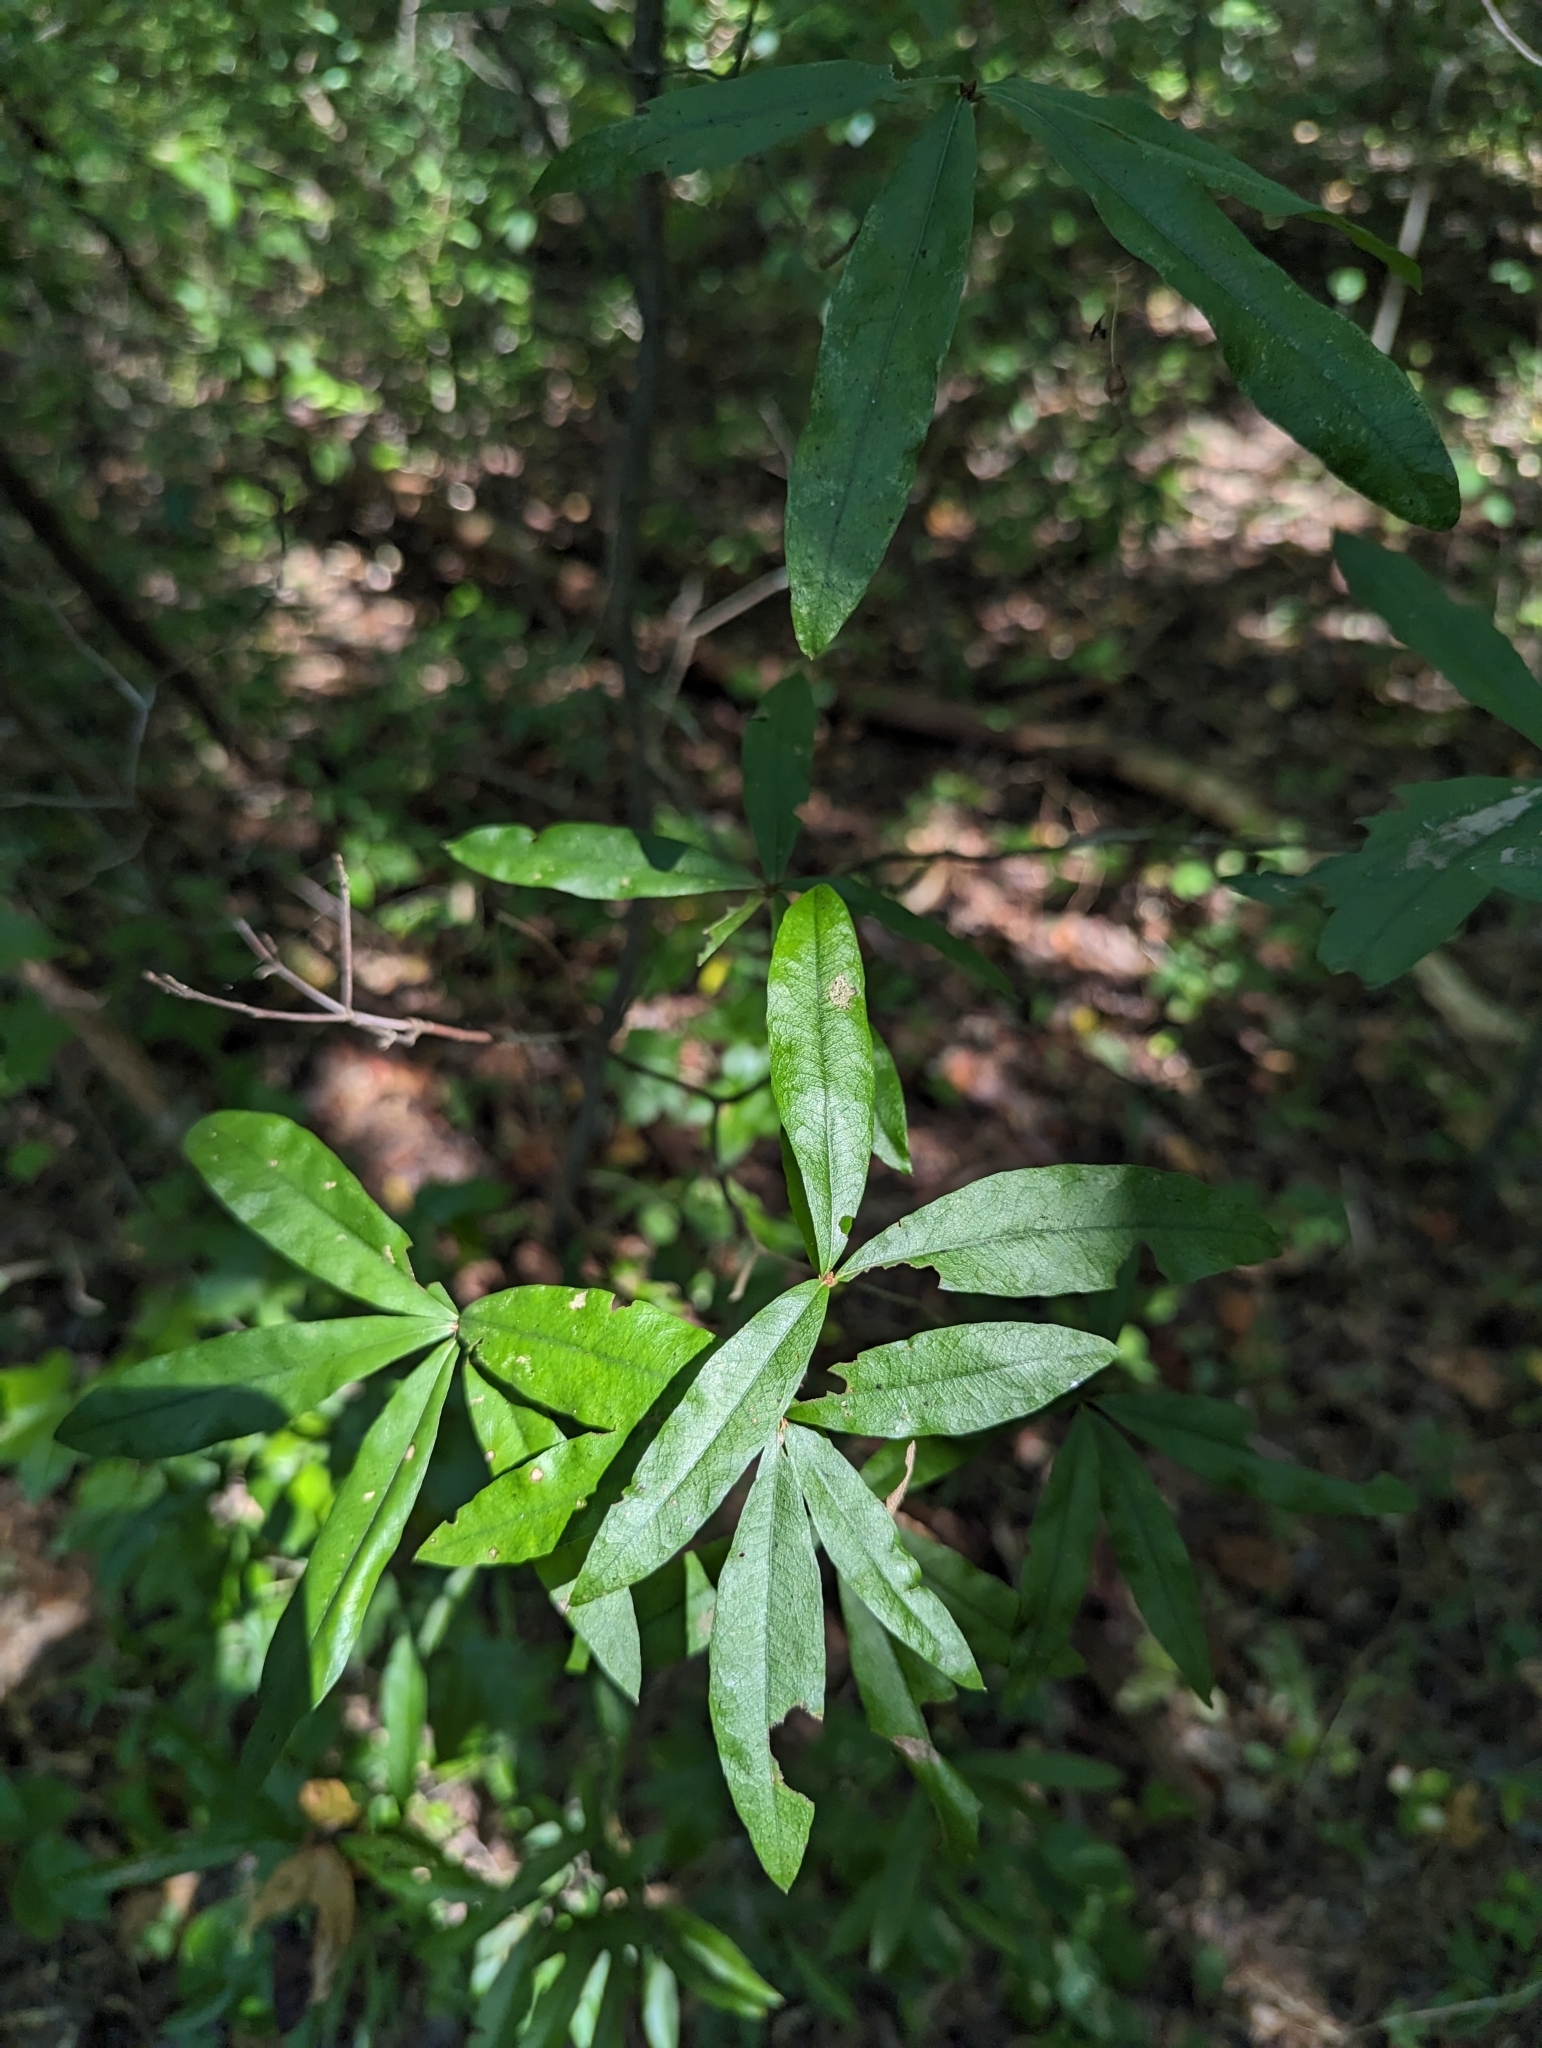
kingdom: Plantae
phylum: Tracheophyta
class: Magnoliopsida
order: Fagales
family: Fagaceae
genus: Quercus
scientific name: Quercus phellos
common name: Willow oak
